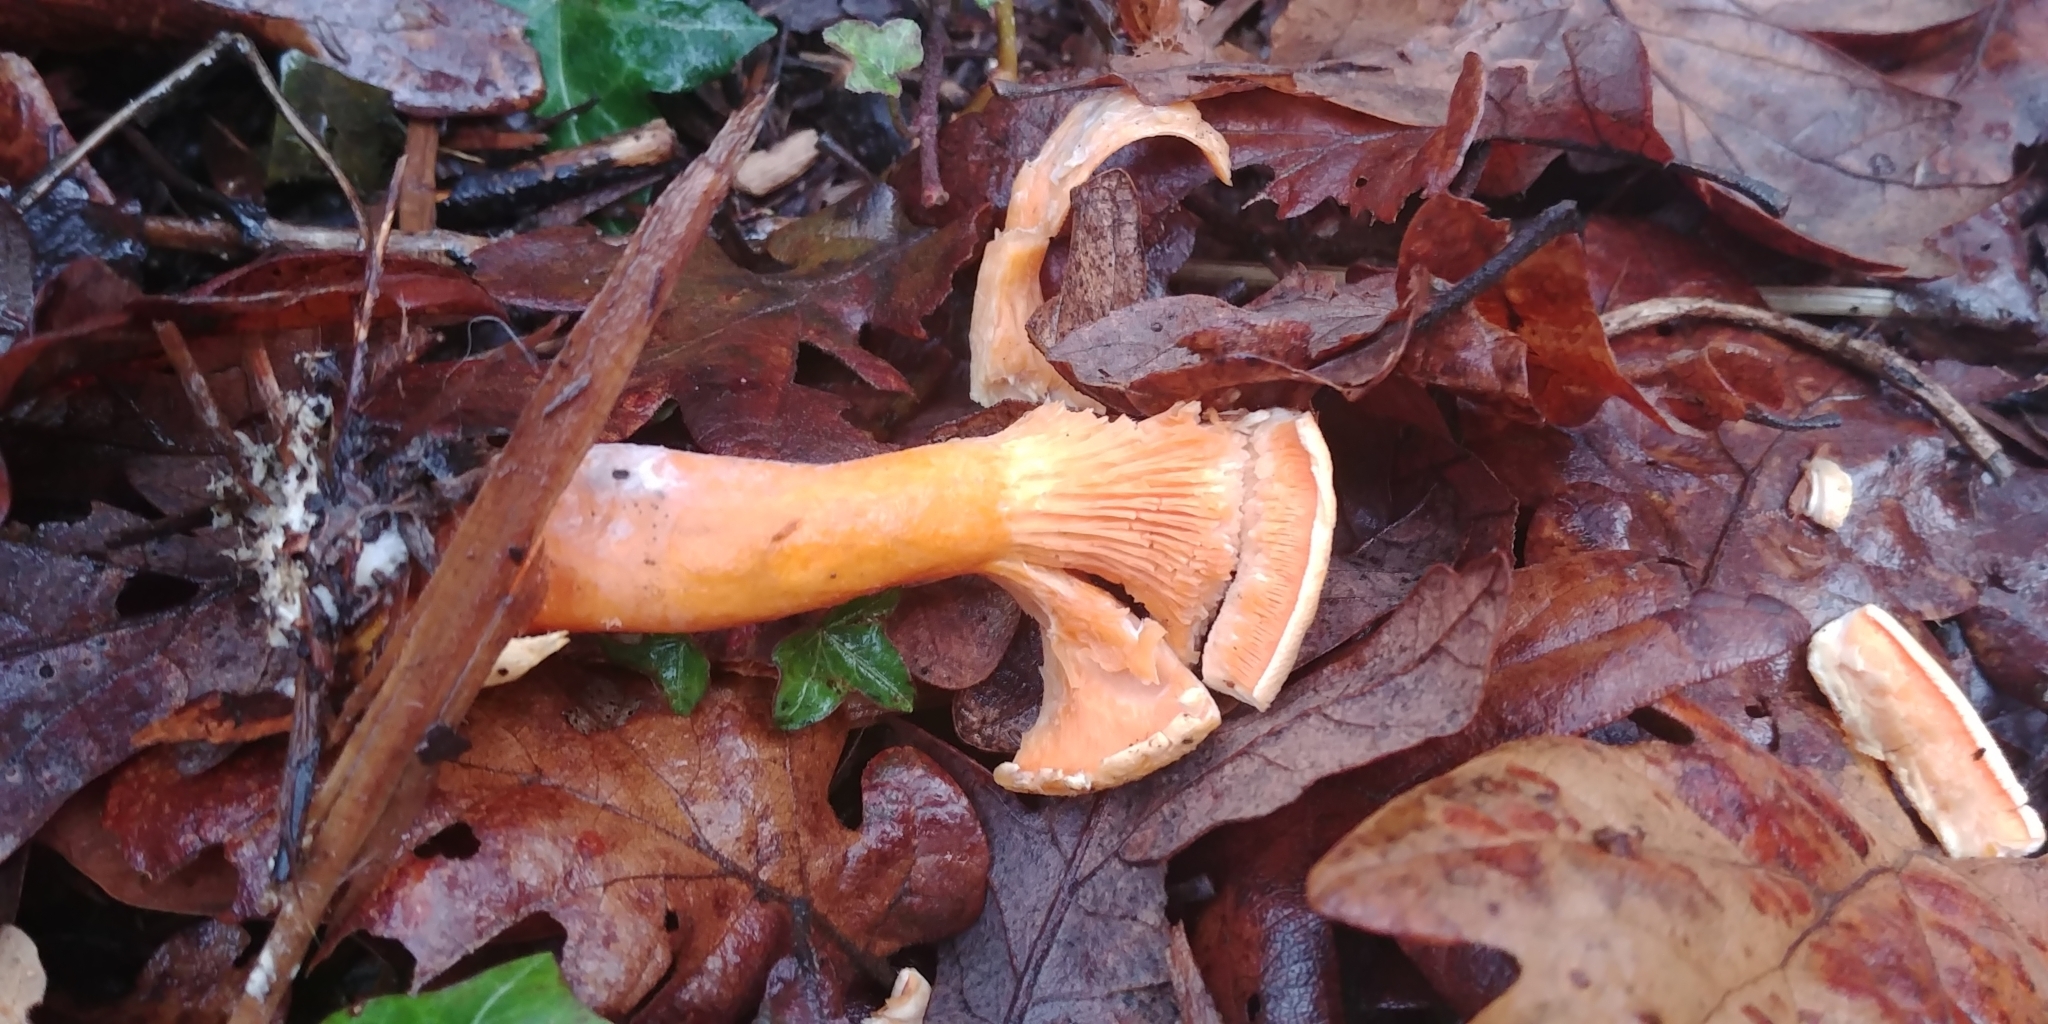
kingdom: Fungi
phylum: Basidiomycota
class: Agaricomycetes
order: Boletales
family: Hygrophoropsidaceae
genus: Hygrophoropsis
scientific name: Hygrophoropsis aurantiaca
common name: False chanterelle
